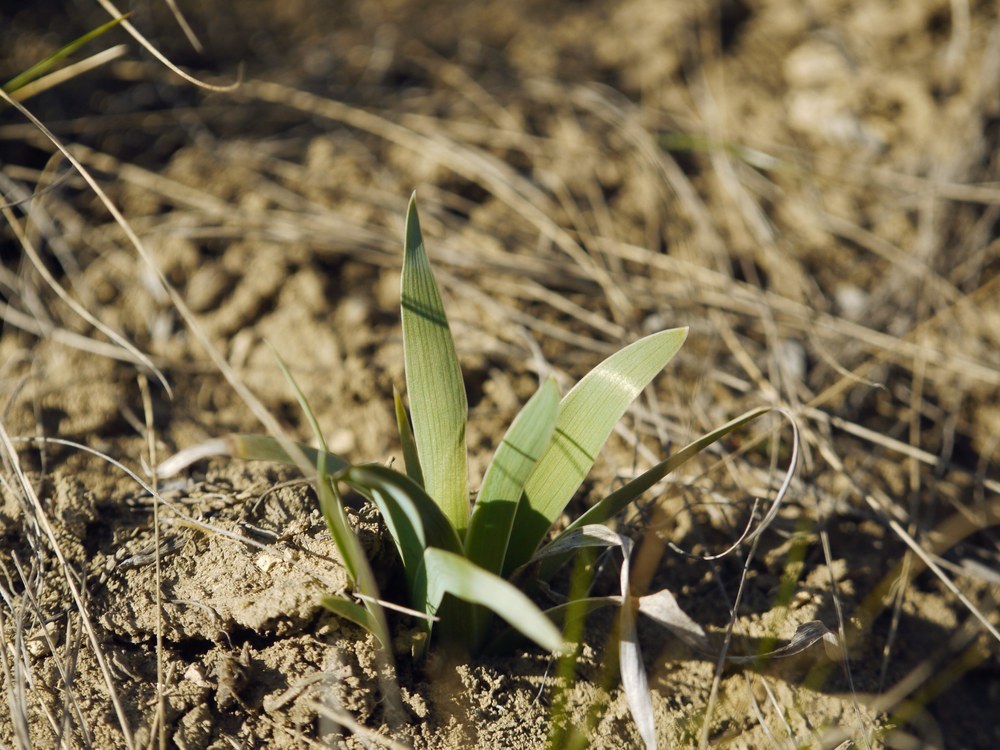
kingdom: Plantae
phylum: Tracheophyta
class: Liliopsida
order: Asparagales
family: Iridaceae
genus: Iris
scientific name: Iris pumila
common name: Dwarf iris
